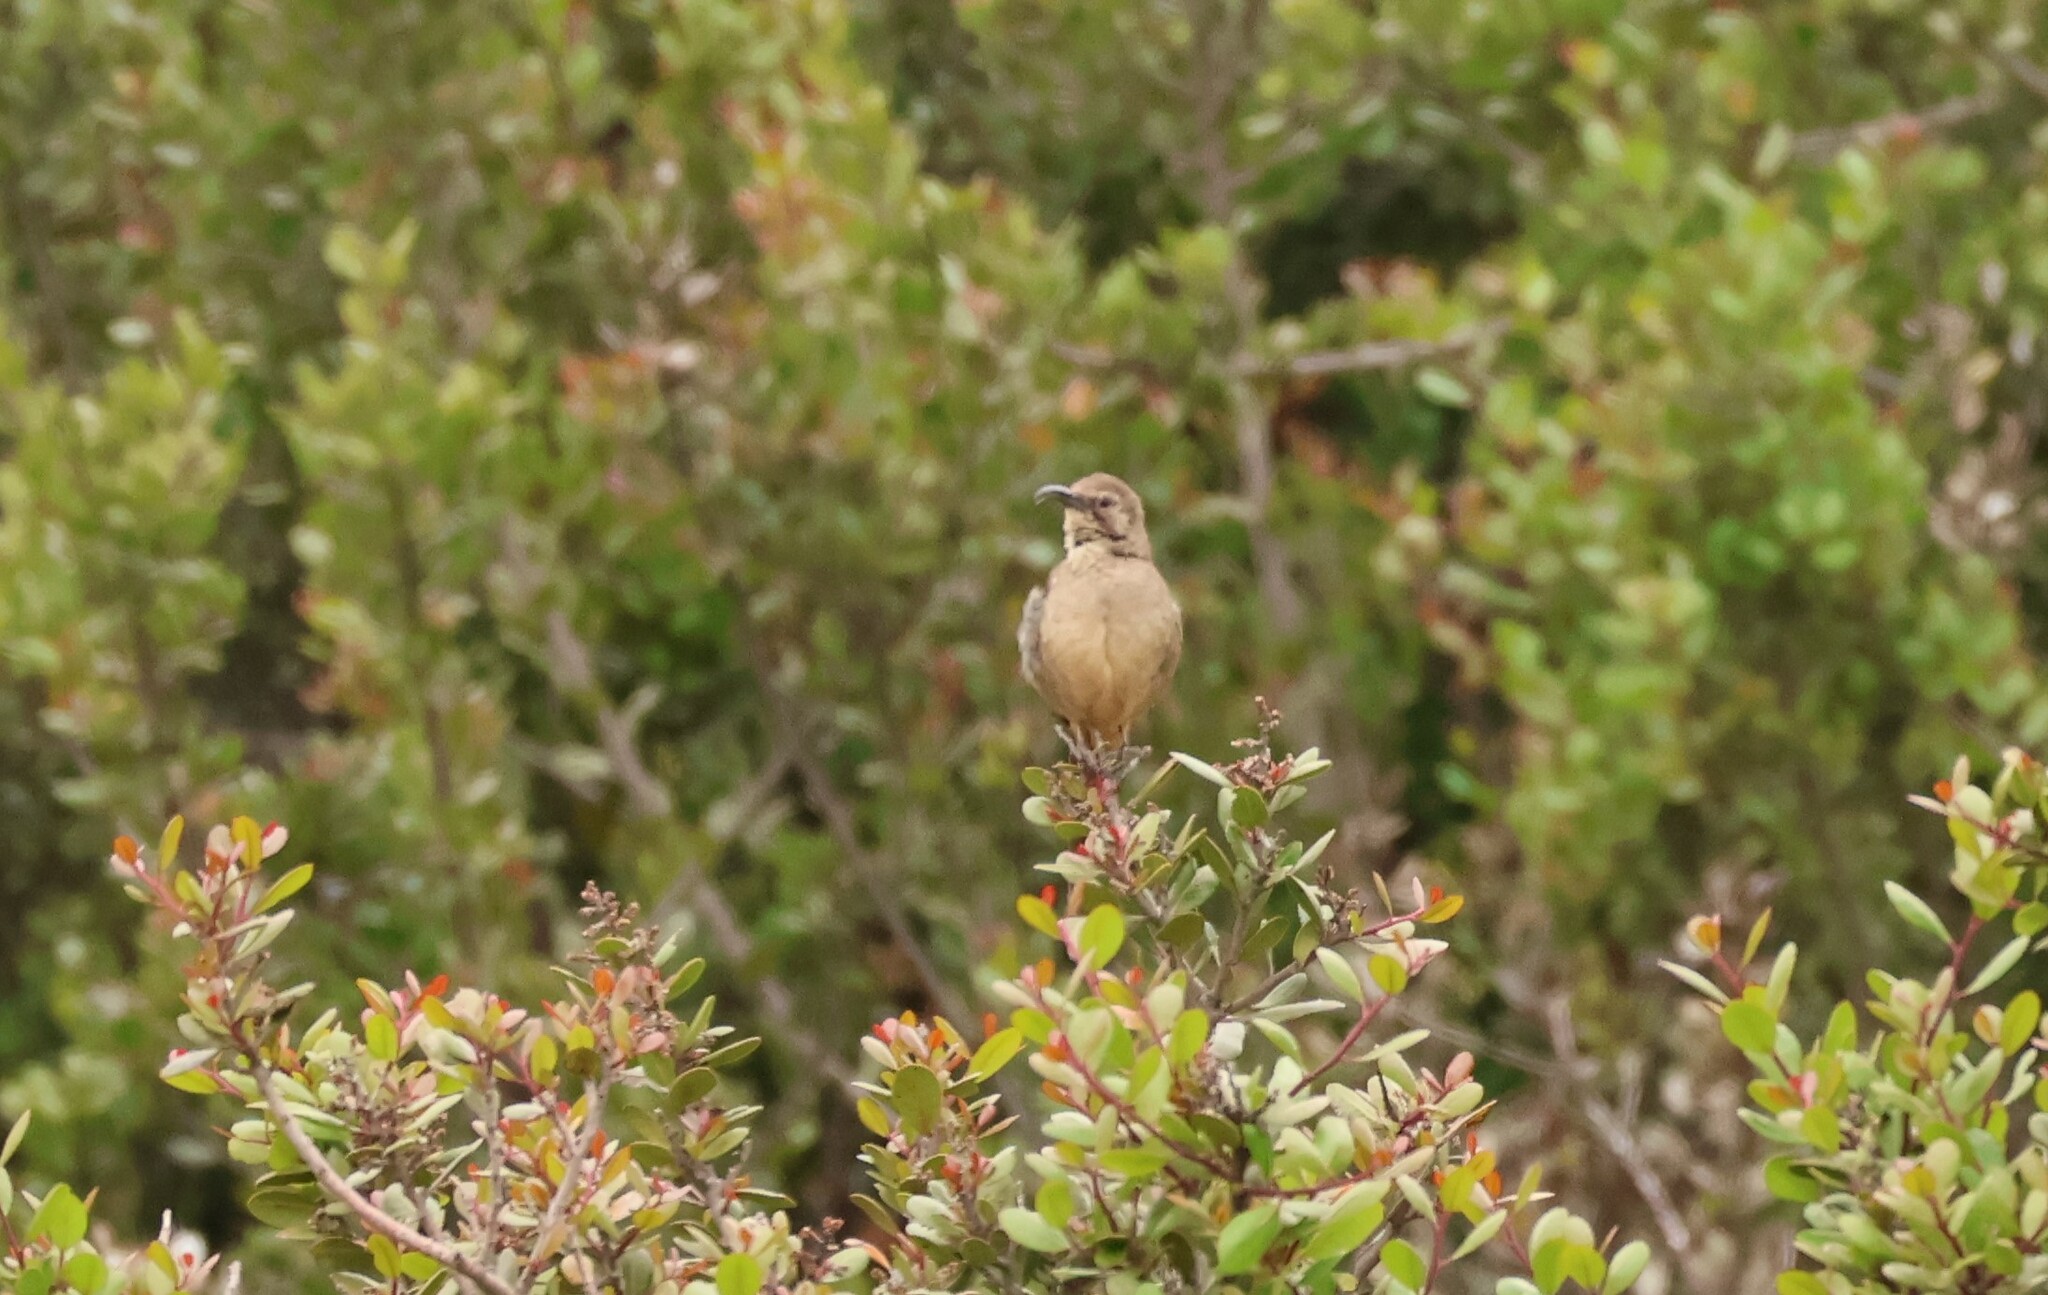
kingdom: Animalia
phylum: Chordata
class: Aves
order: Passeriformes
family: Mimidae
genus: Toxostoma
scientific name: Toxostoma redivivum
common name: California thrasher
